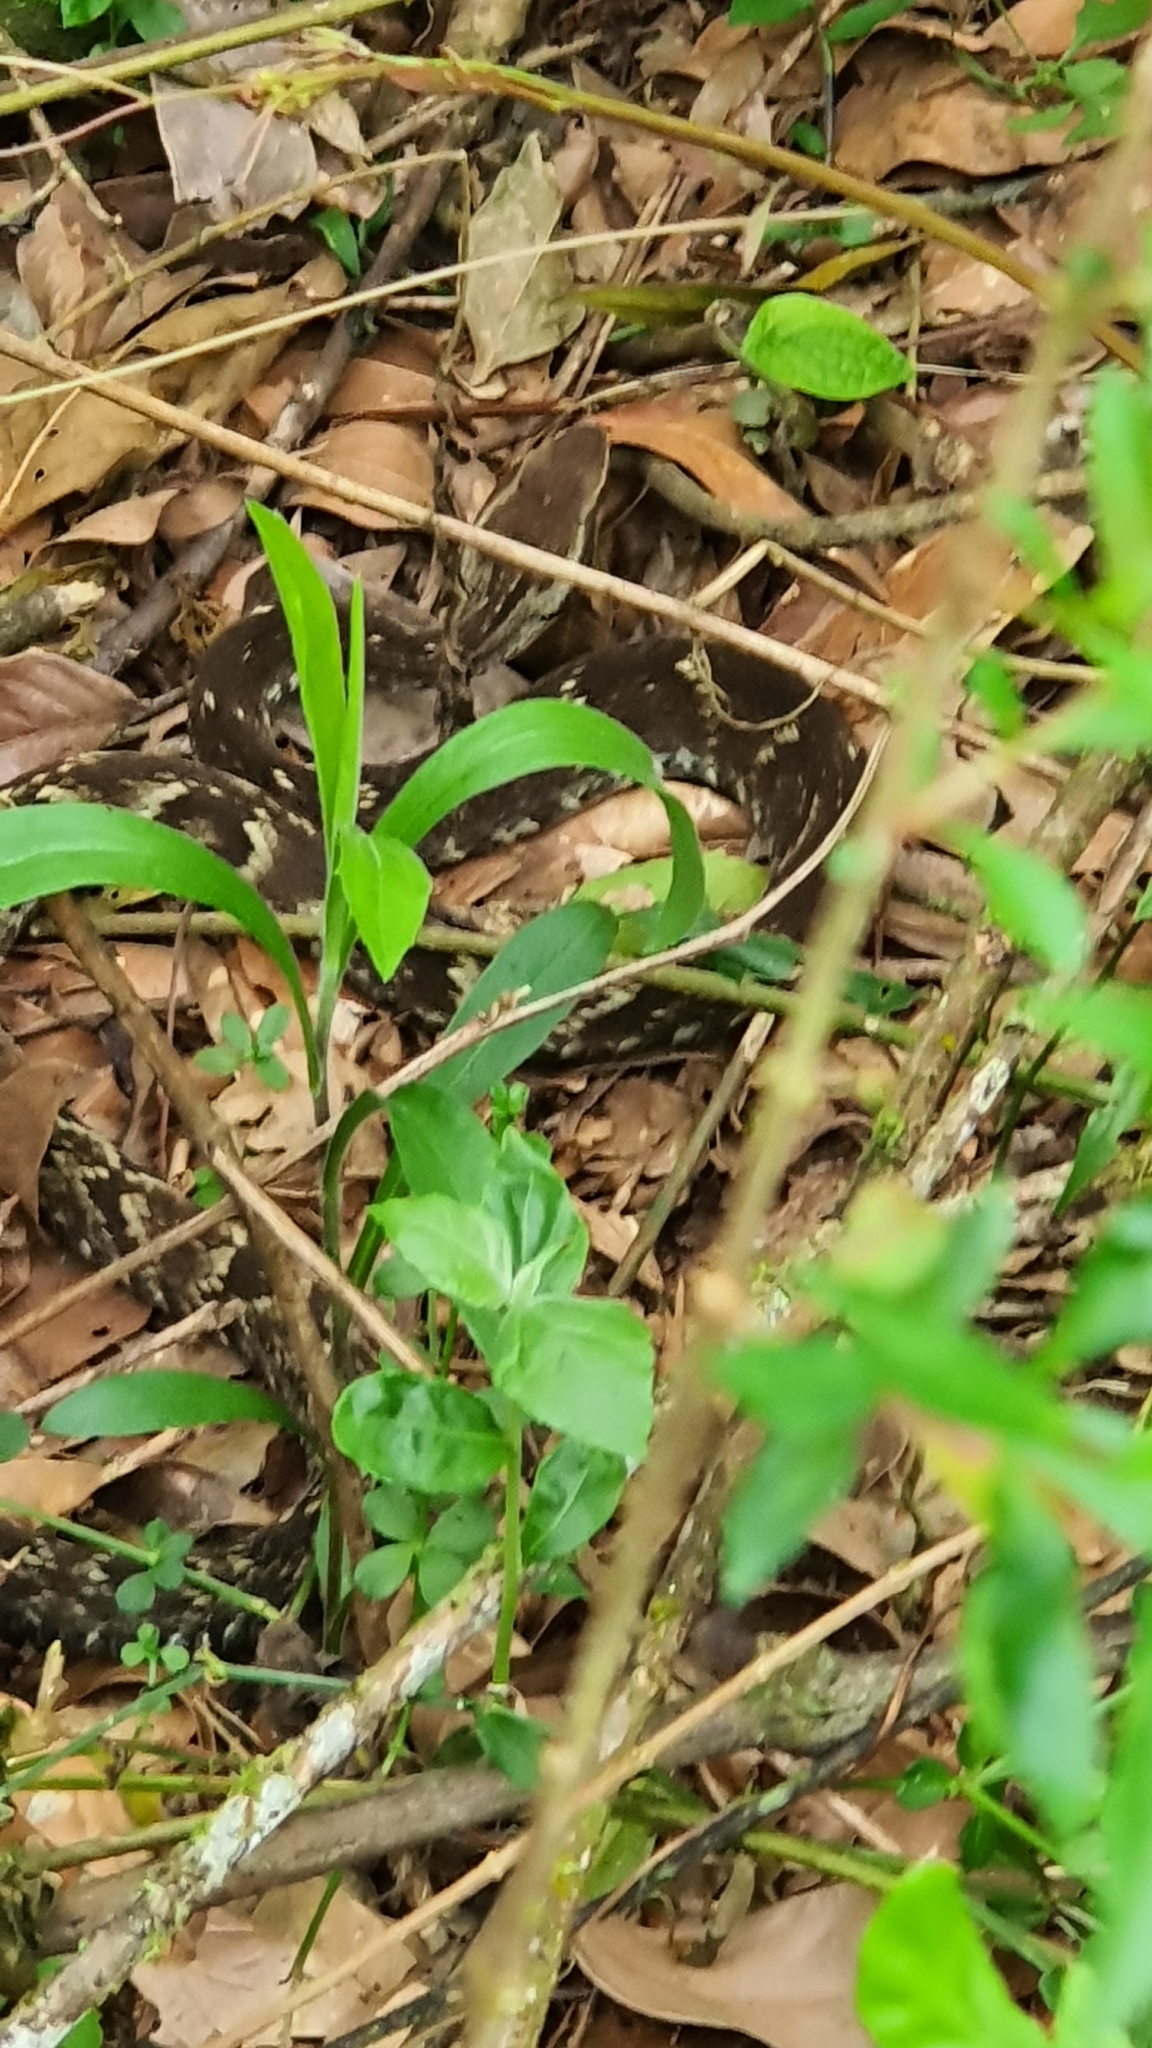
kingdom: Animalia
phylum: Chordata
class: Squamata
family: Viperidae
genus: Bothrops
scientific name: Bothrops jararaca
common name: Jararaca
